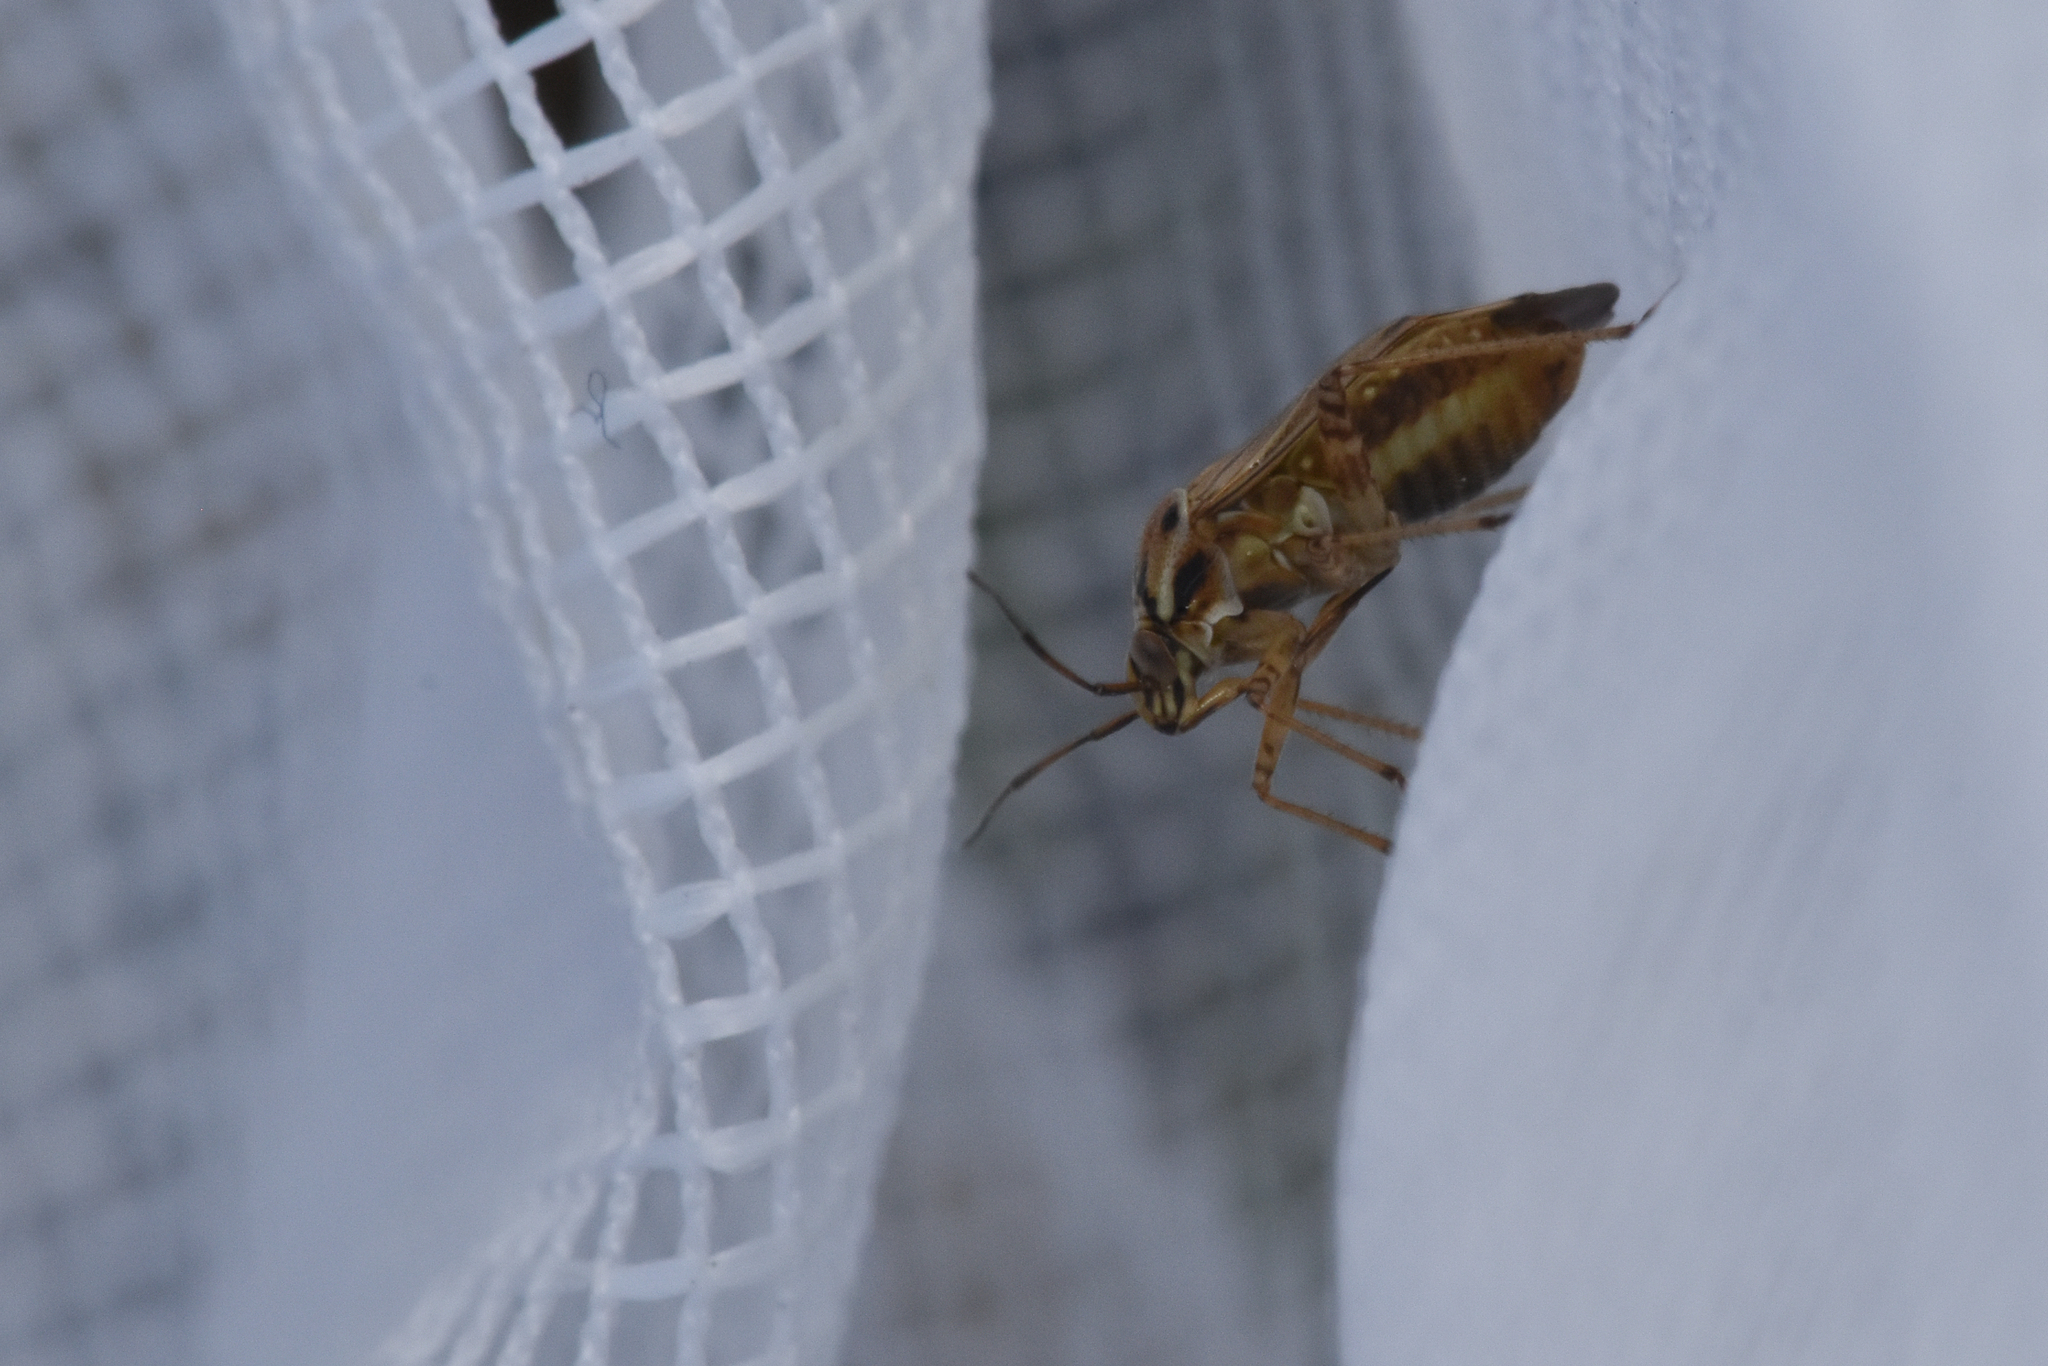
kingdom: Animalia
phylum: Arthropoda
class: Insecta
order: Hemiptera
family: Miridae
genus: Adelphocoris
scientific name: Adelphocoris lineolatus
